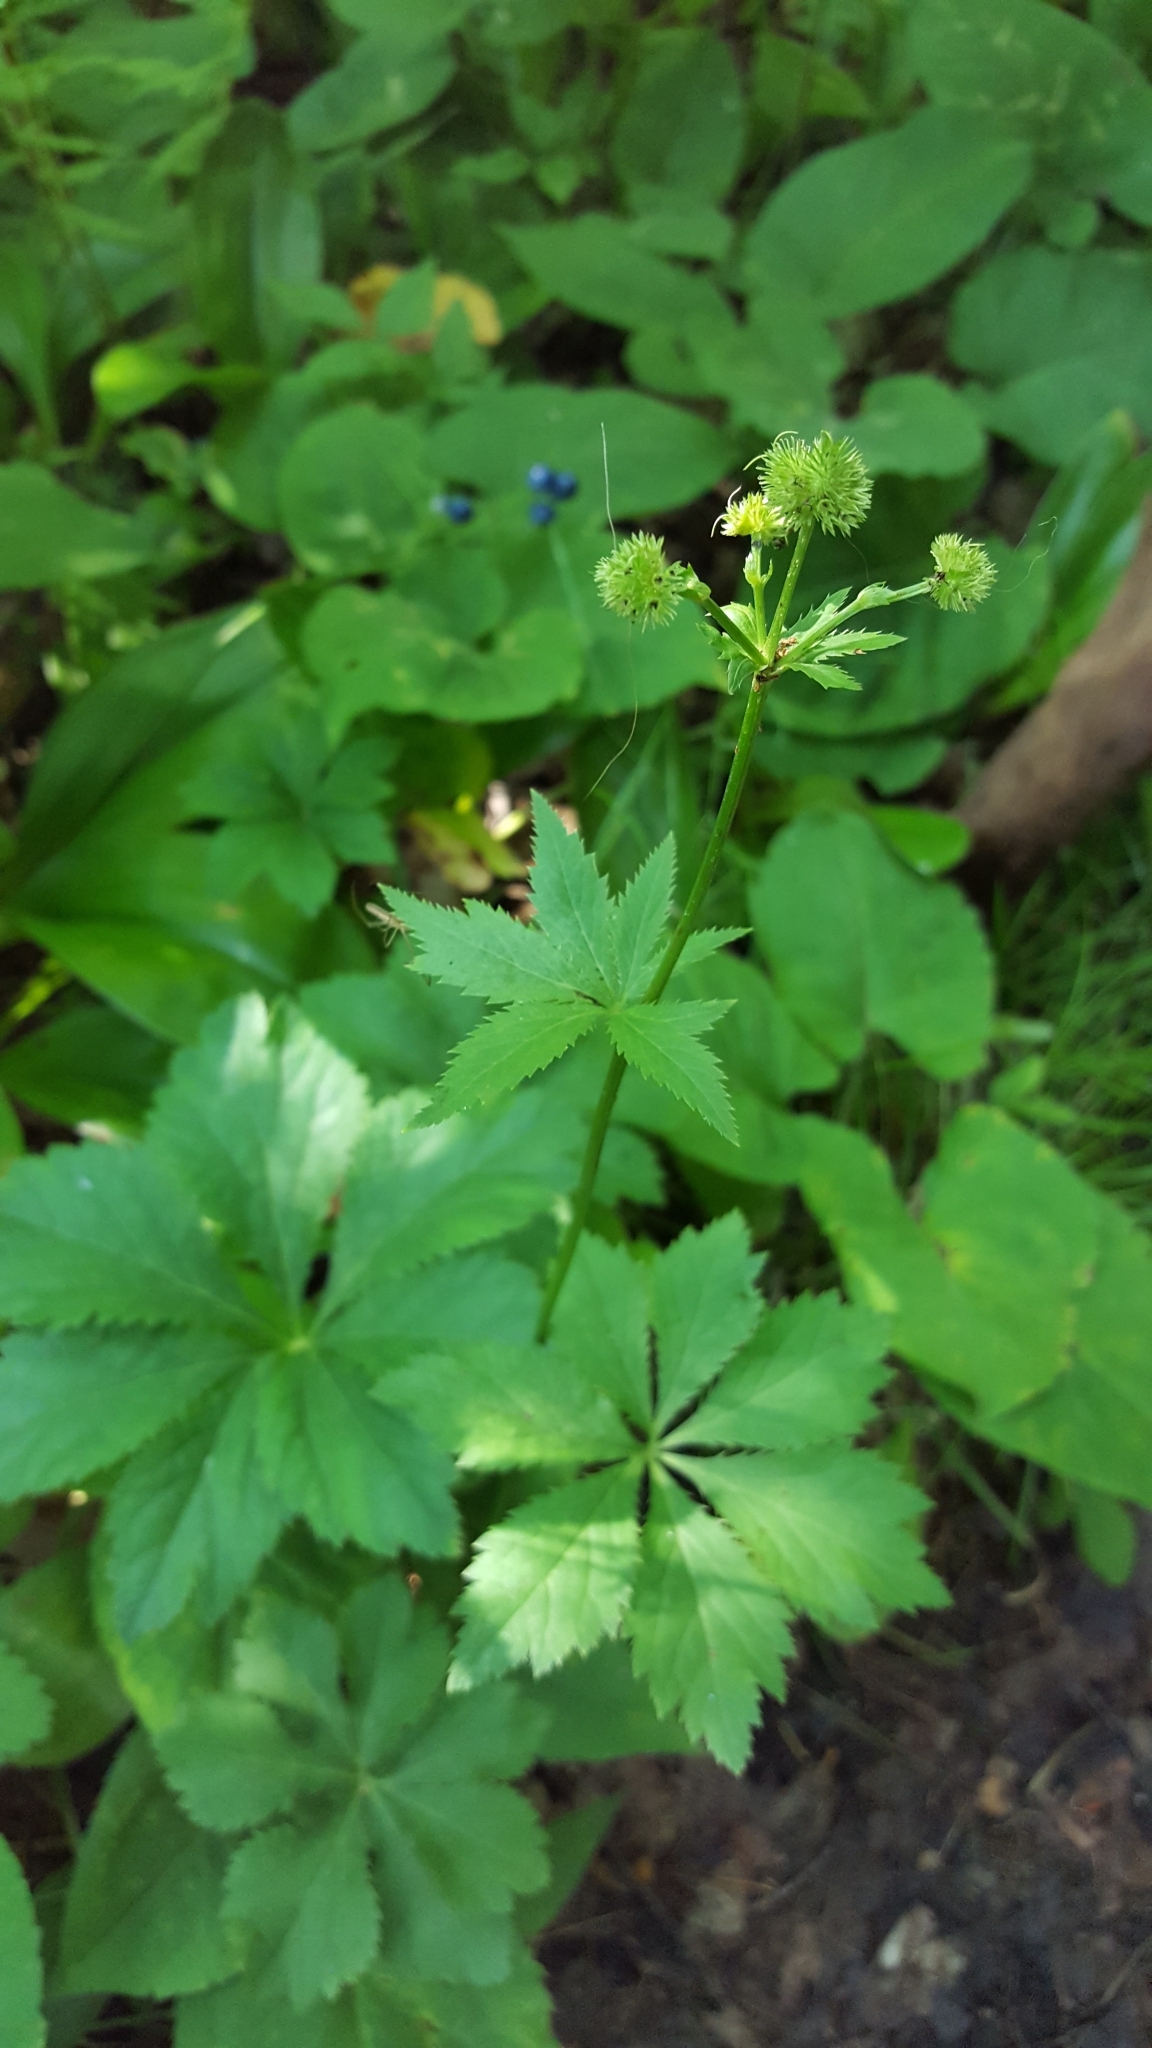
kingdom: Plantae
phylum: Tracheophyta
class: Magnoliopsida
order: Apiales
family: Apiaceae
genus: Sanicula
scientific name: Sanicula marilandica
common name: Black snakeroot
